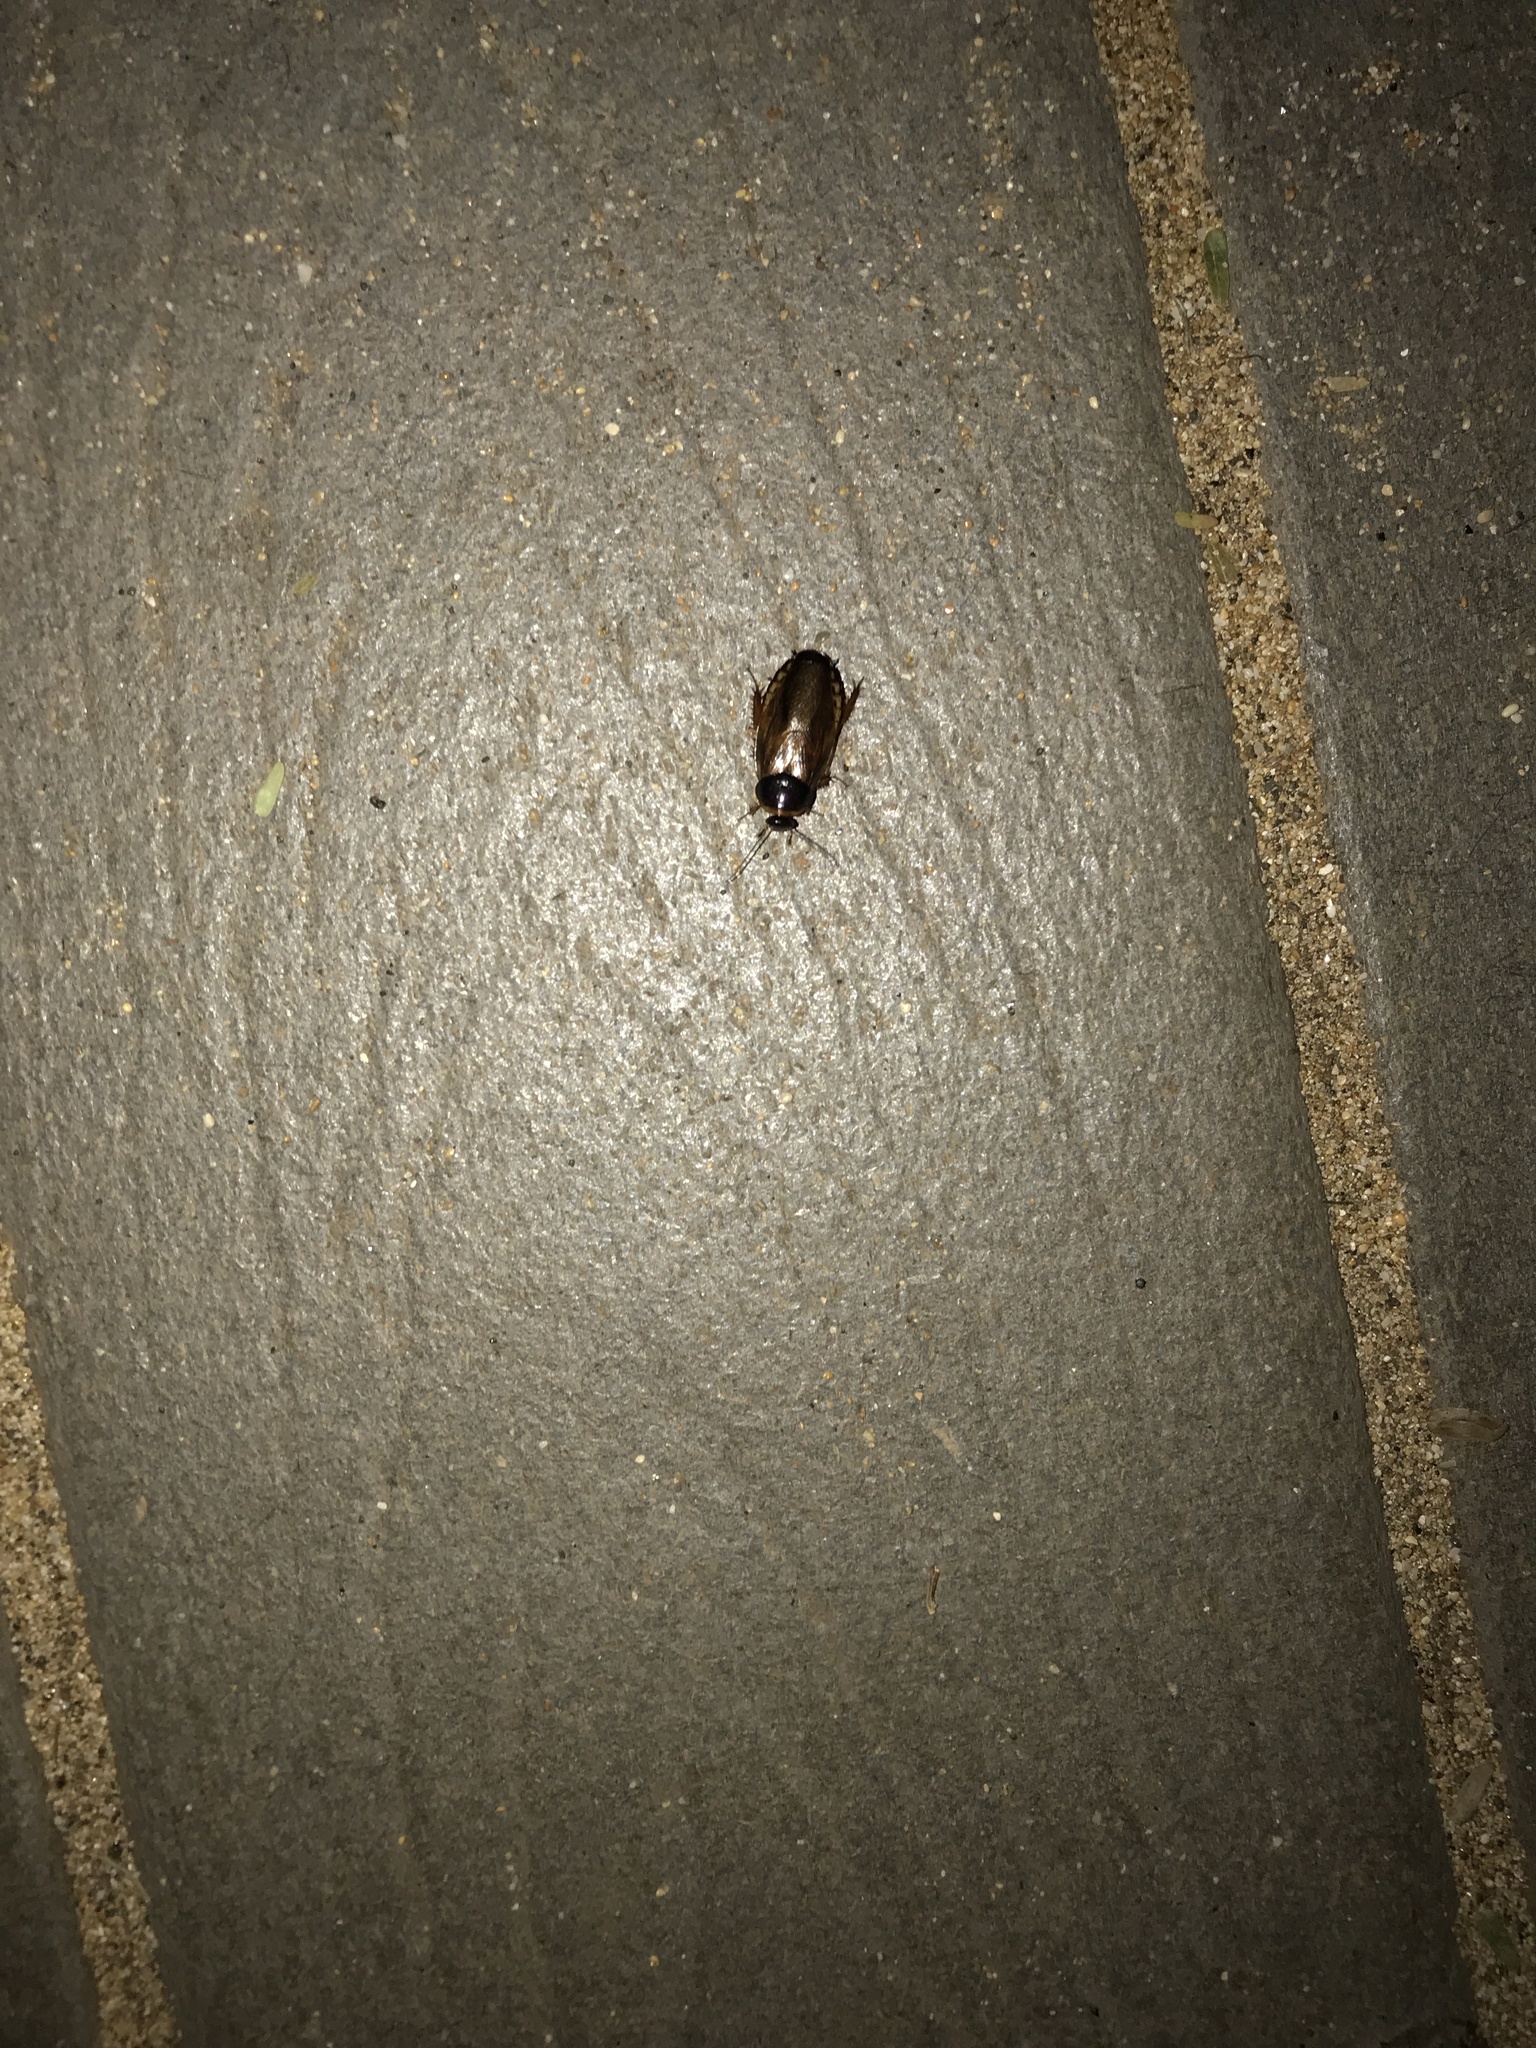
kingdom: Animalia
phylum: Arthropoda
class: Insecta
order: Blattodea
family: Blaberidae
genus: Pycnoscelus
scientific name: Pycnoscelus surinamensis
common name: Surinam cockroach
